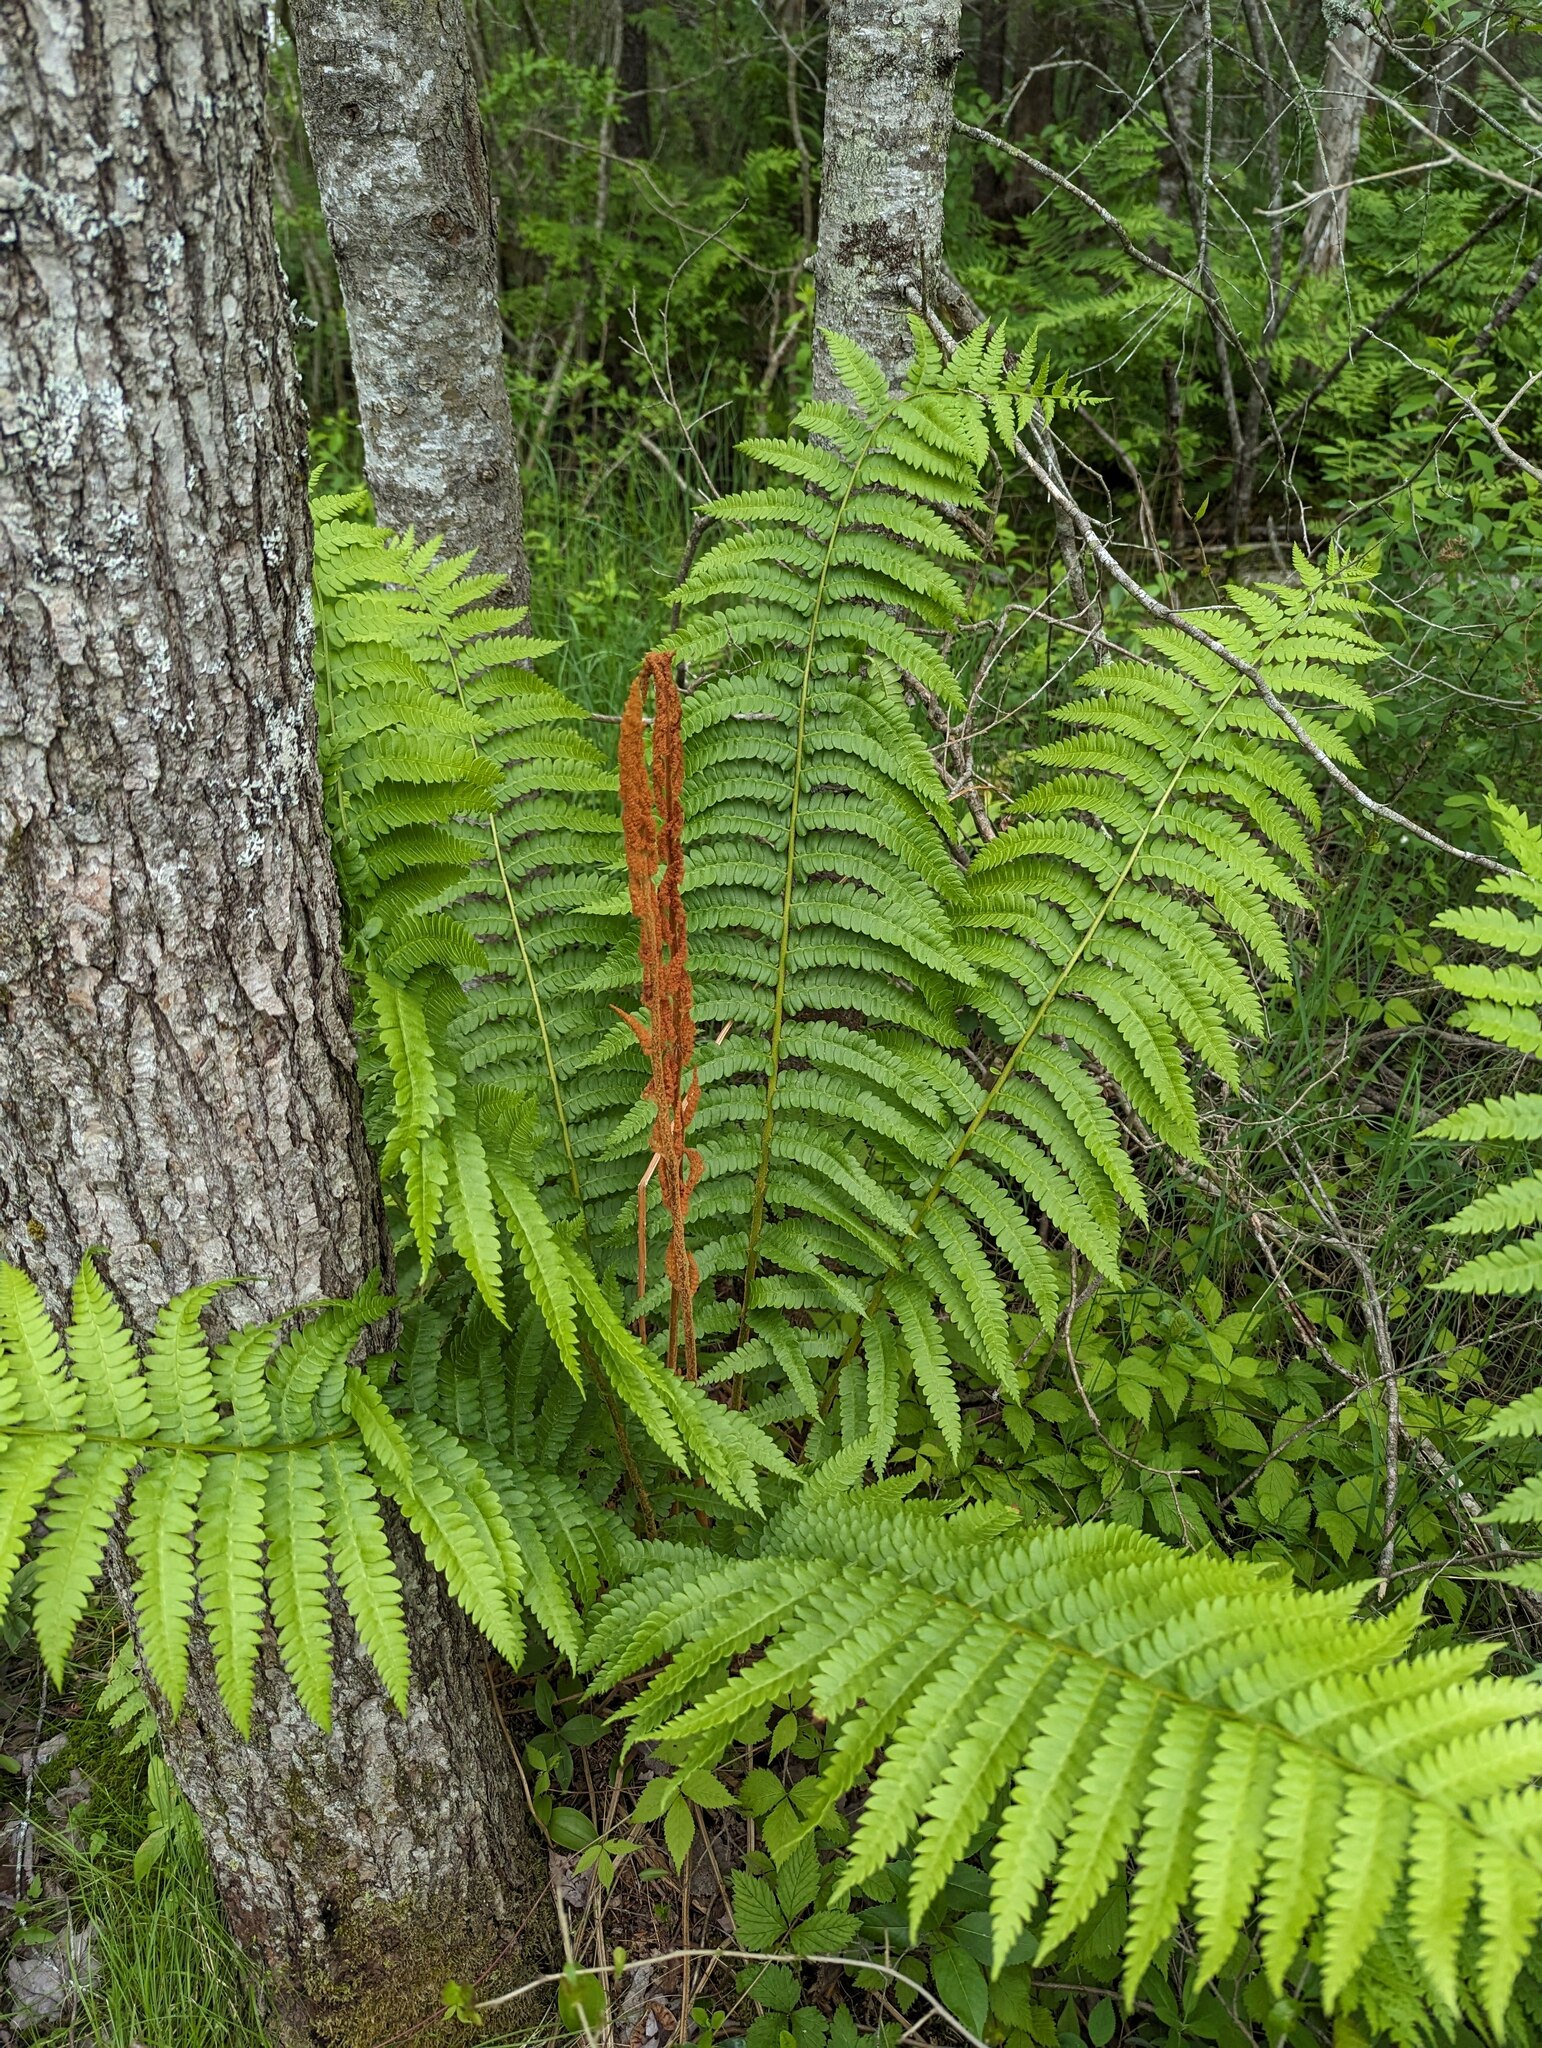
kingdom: Plantae
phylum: Tracheophyta
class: Polypodiopsida
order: Osmundales
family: Osmundaceae
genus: Osmundastrum
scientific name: Osmundastrum cinnamomeum
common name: Cinnamon fern
